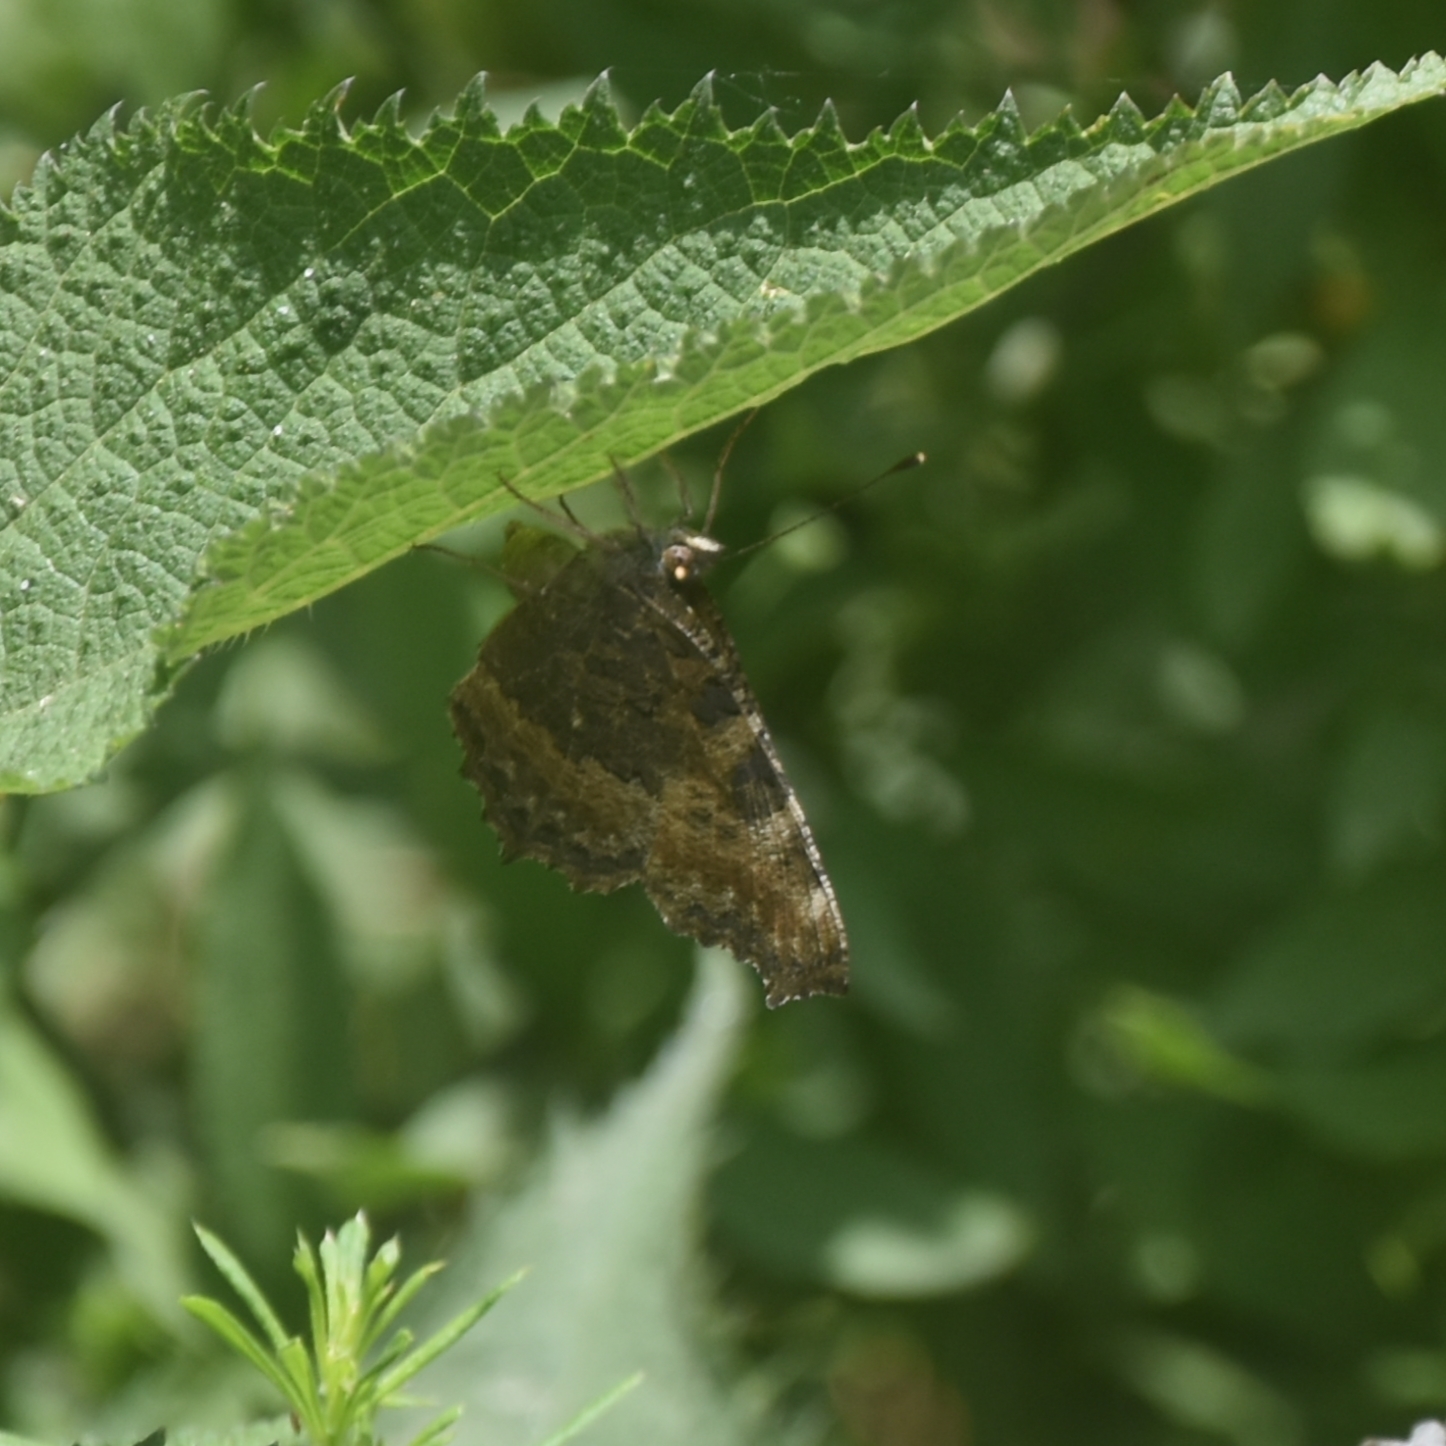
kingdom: Animalia
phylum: Arthropoda
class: Insecta
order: Lepidoptera
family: Nymphalidae
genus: Aglais
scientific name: Aglais caschmirensis
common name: Indian tortoiseshell
